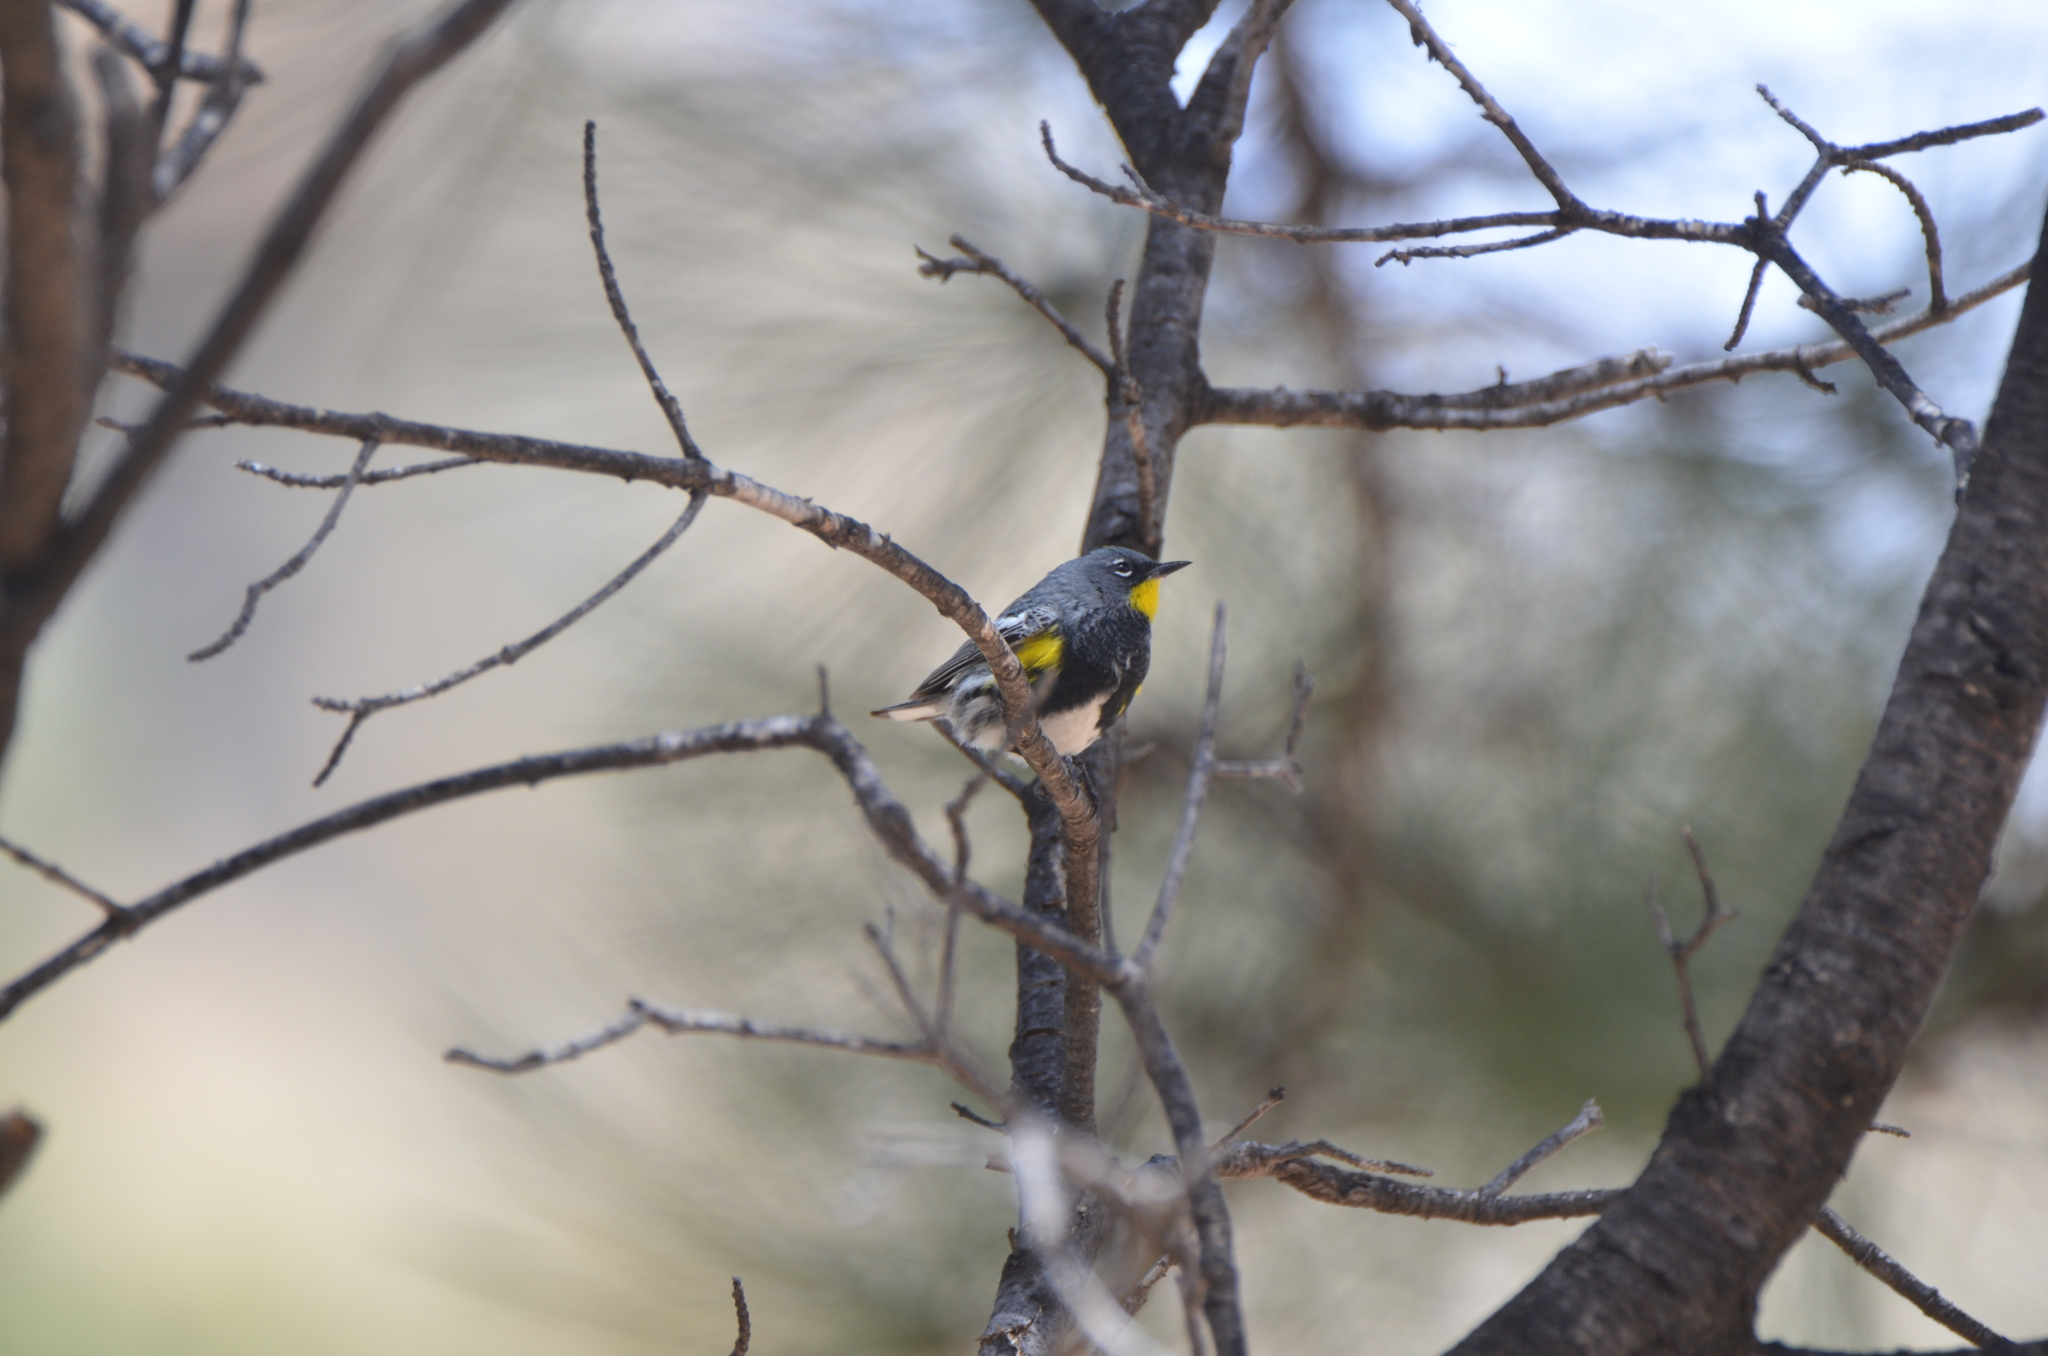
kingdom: Animalia
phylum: Chordata
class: Aves
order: Passeriformes
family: Parulidae
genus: Setophaga
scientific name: Setophaga coronata
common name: Myrtle warbler
